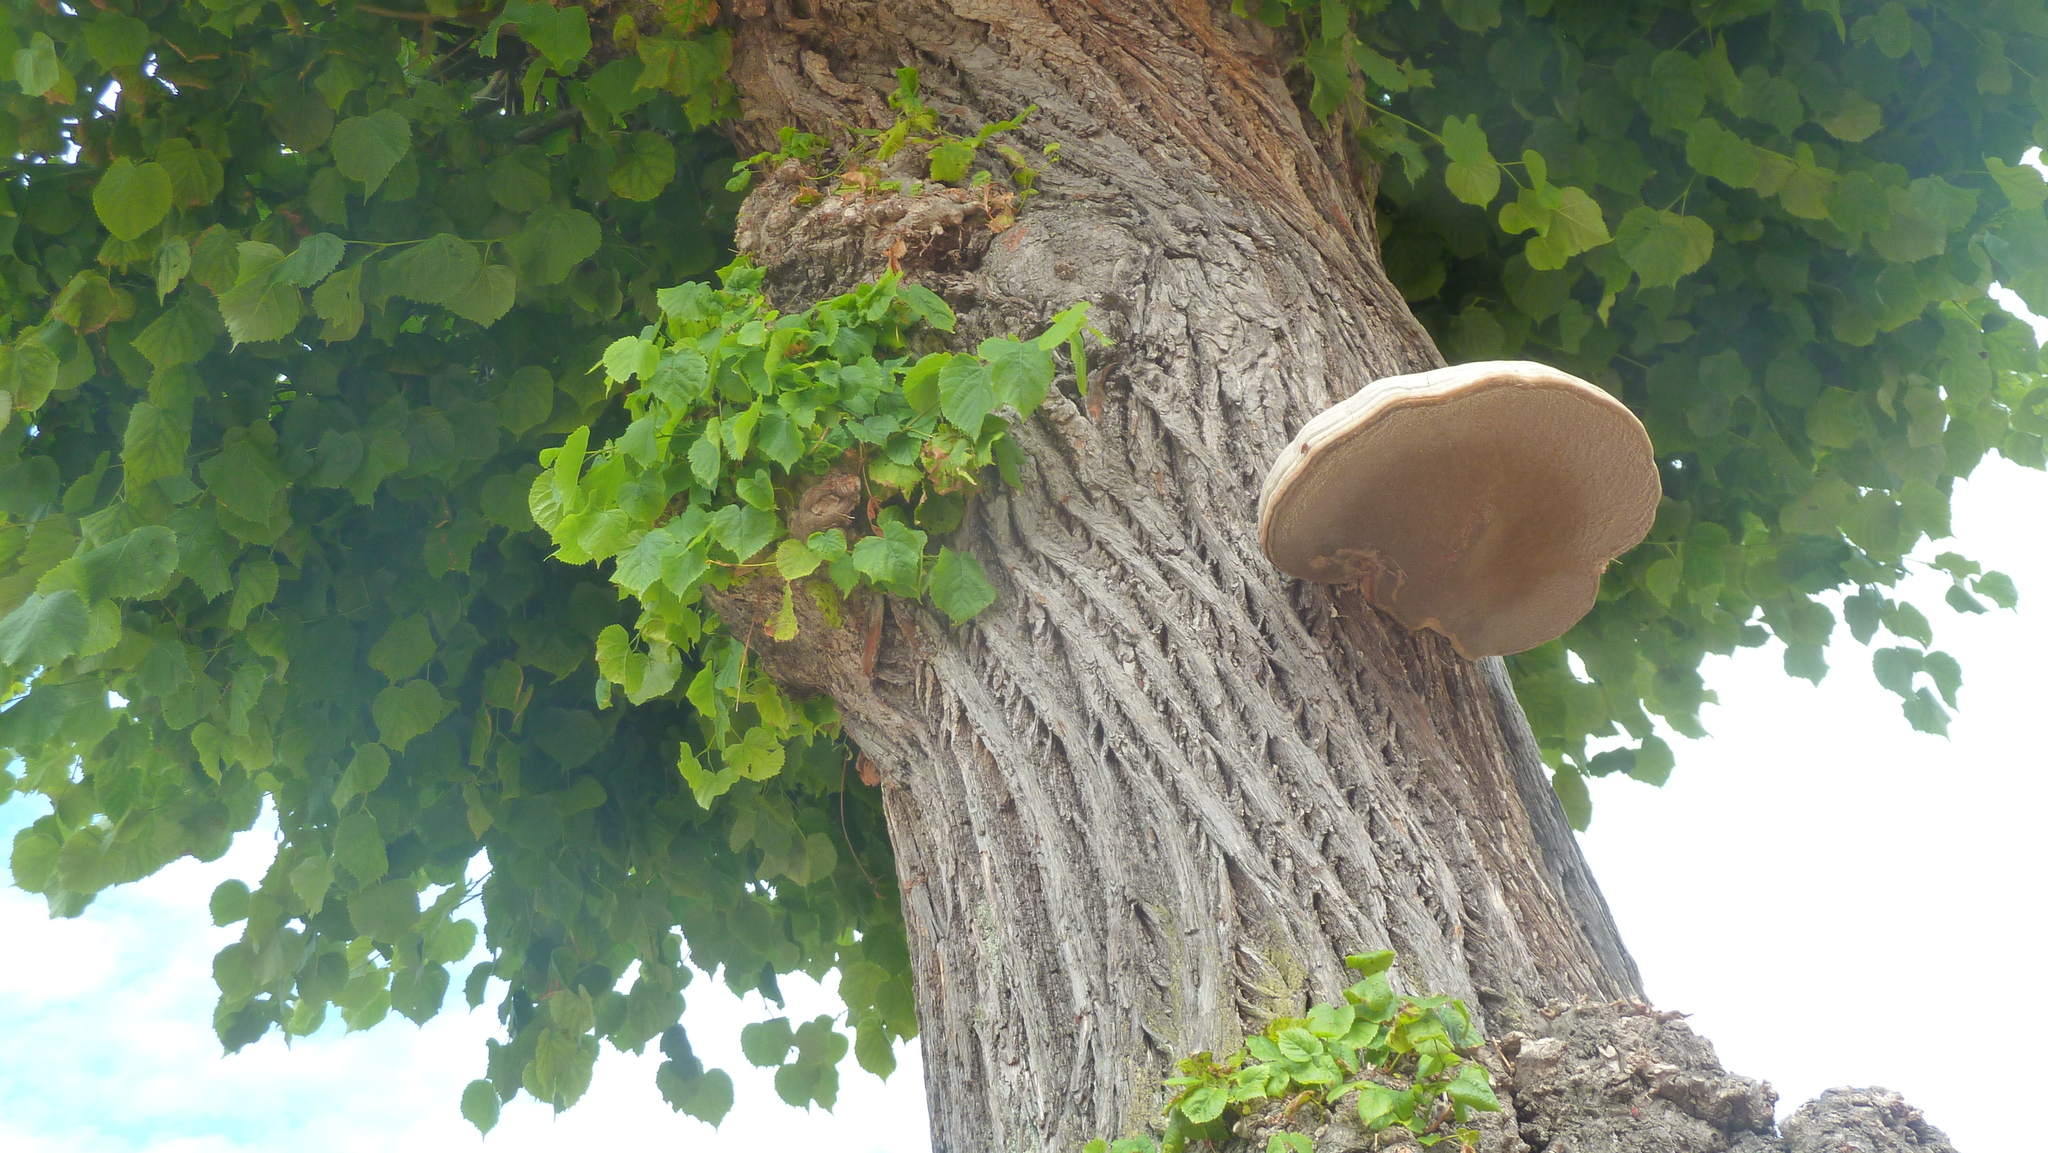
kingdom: Fungi
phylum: Basidiomycota
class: Agaricomycetes
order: Polyporales
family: Polyporaceae
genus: Fomes
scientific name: Fomes fomentarius
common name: Hoof fungus
